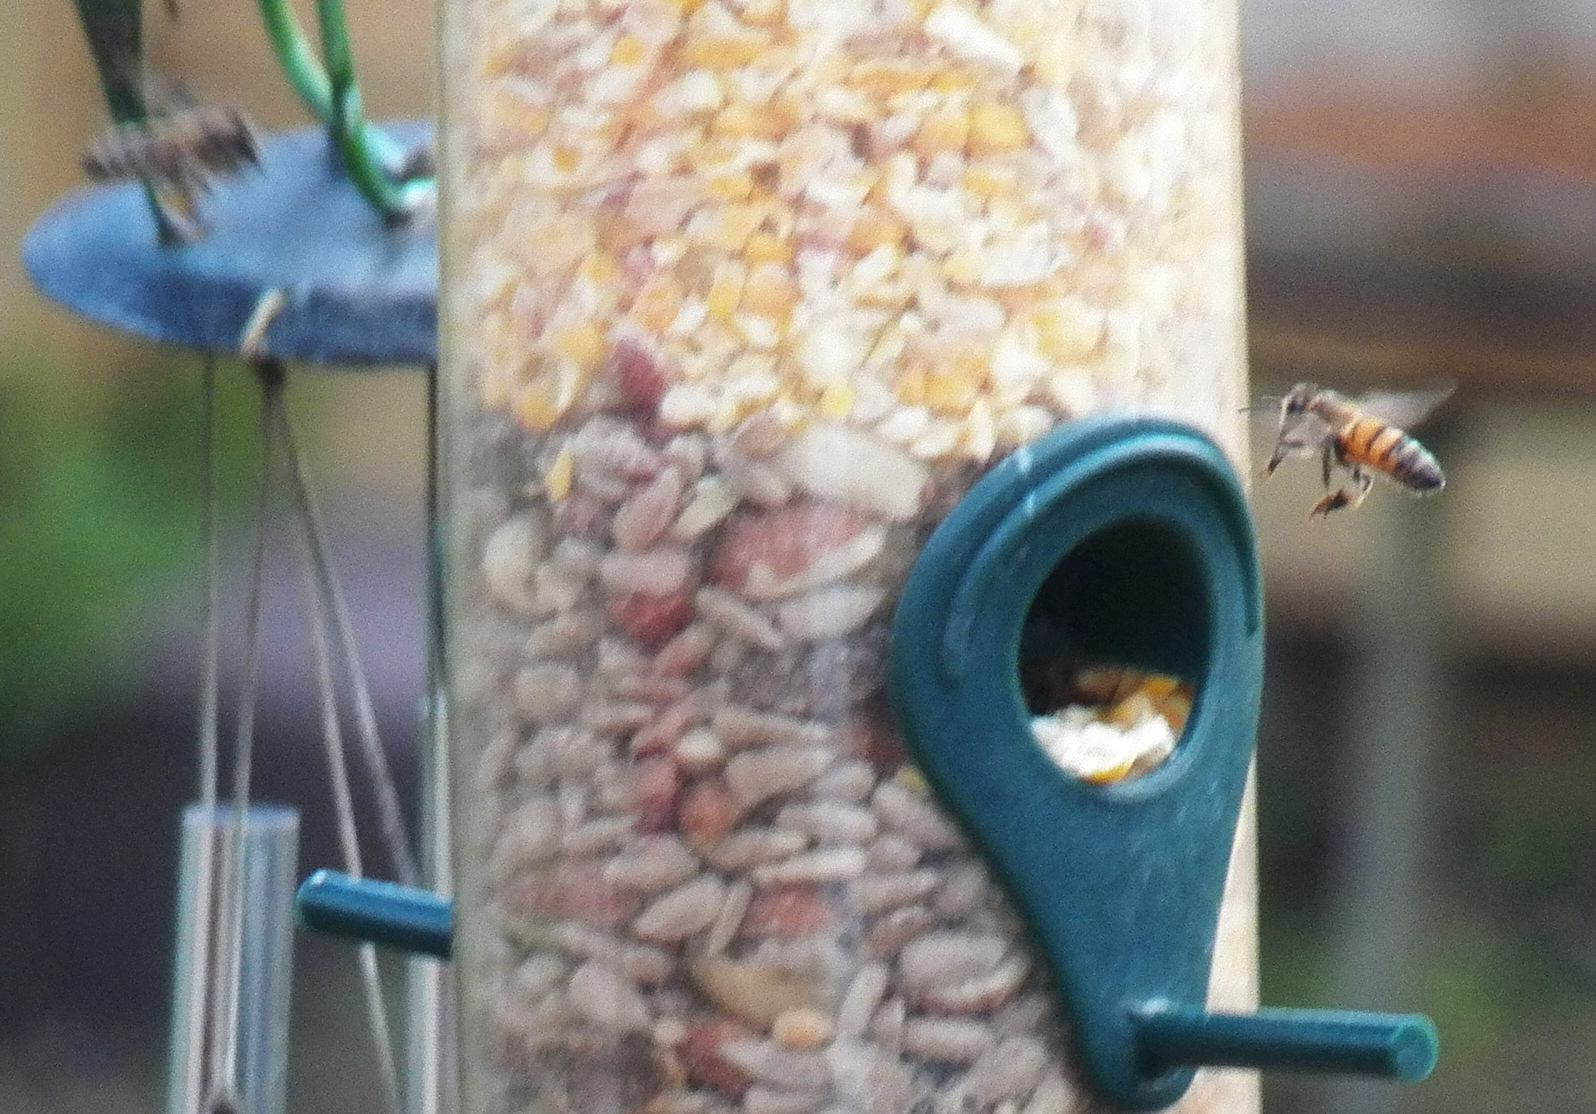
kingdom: Animalia
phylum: Arthropoda
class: Insecta
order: Hymenoptera
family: Apidae
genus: Apis
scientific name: Apis mellifera
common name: Honey bee
